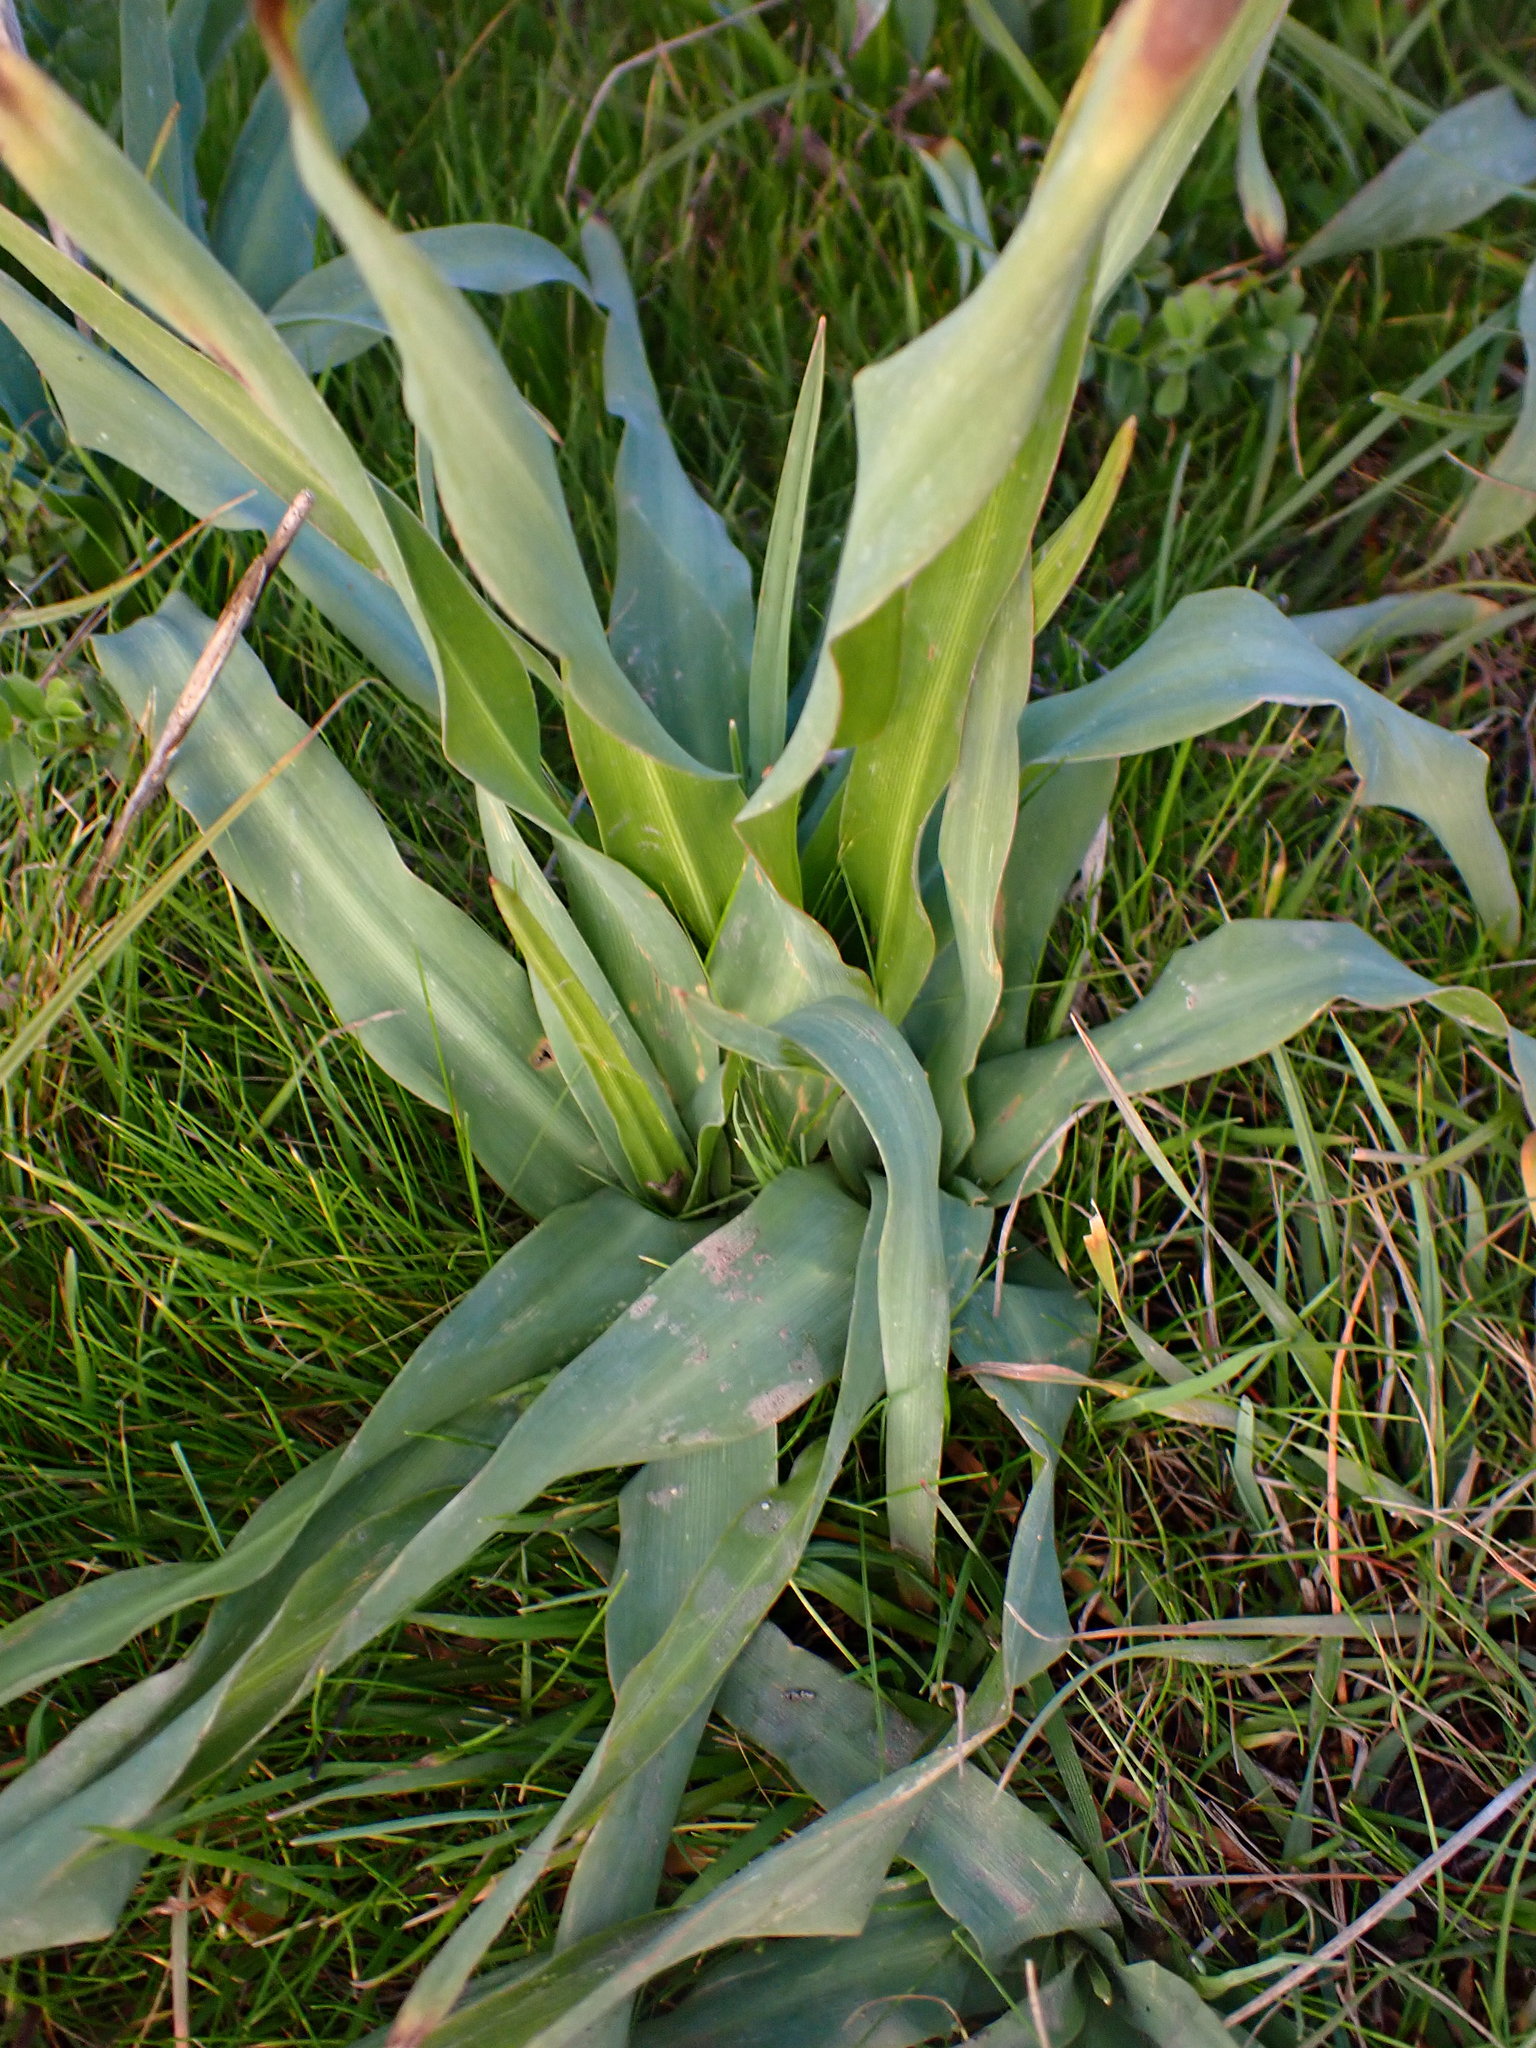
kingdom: Plantae
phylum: Tracheophyta
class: Liliopsida
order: Asparagales
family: Asparagaceae
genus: Chlorogalum
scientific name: Chlorogalum pomeridianum
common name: Amole
